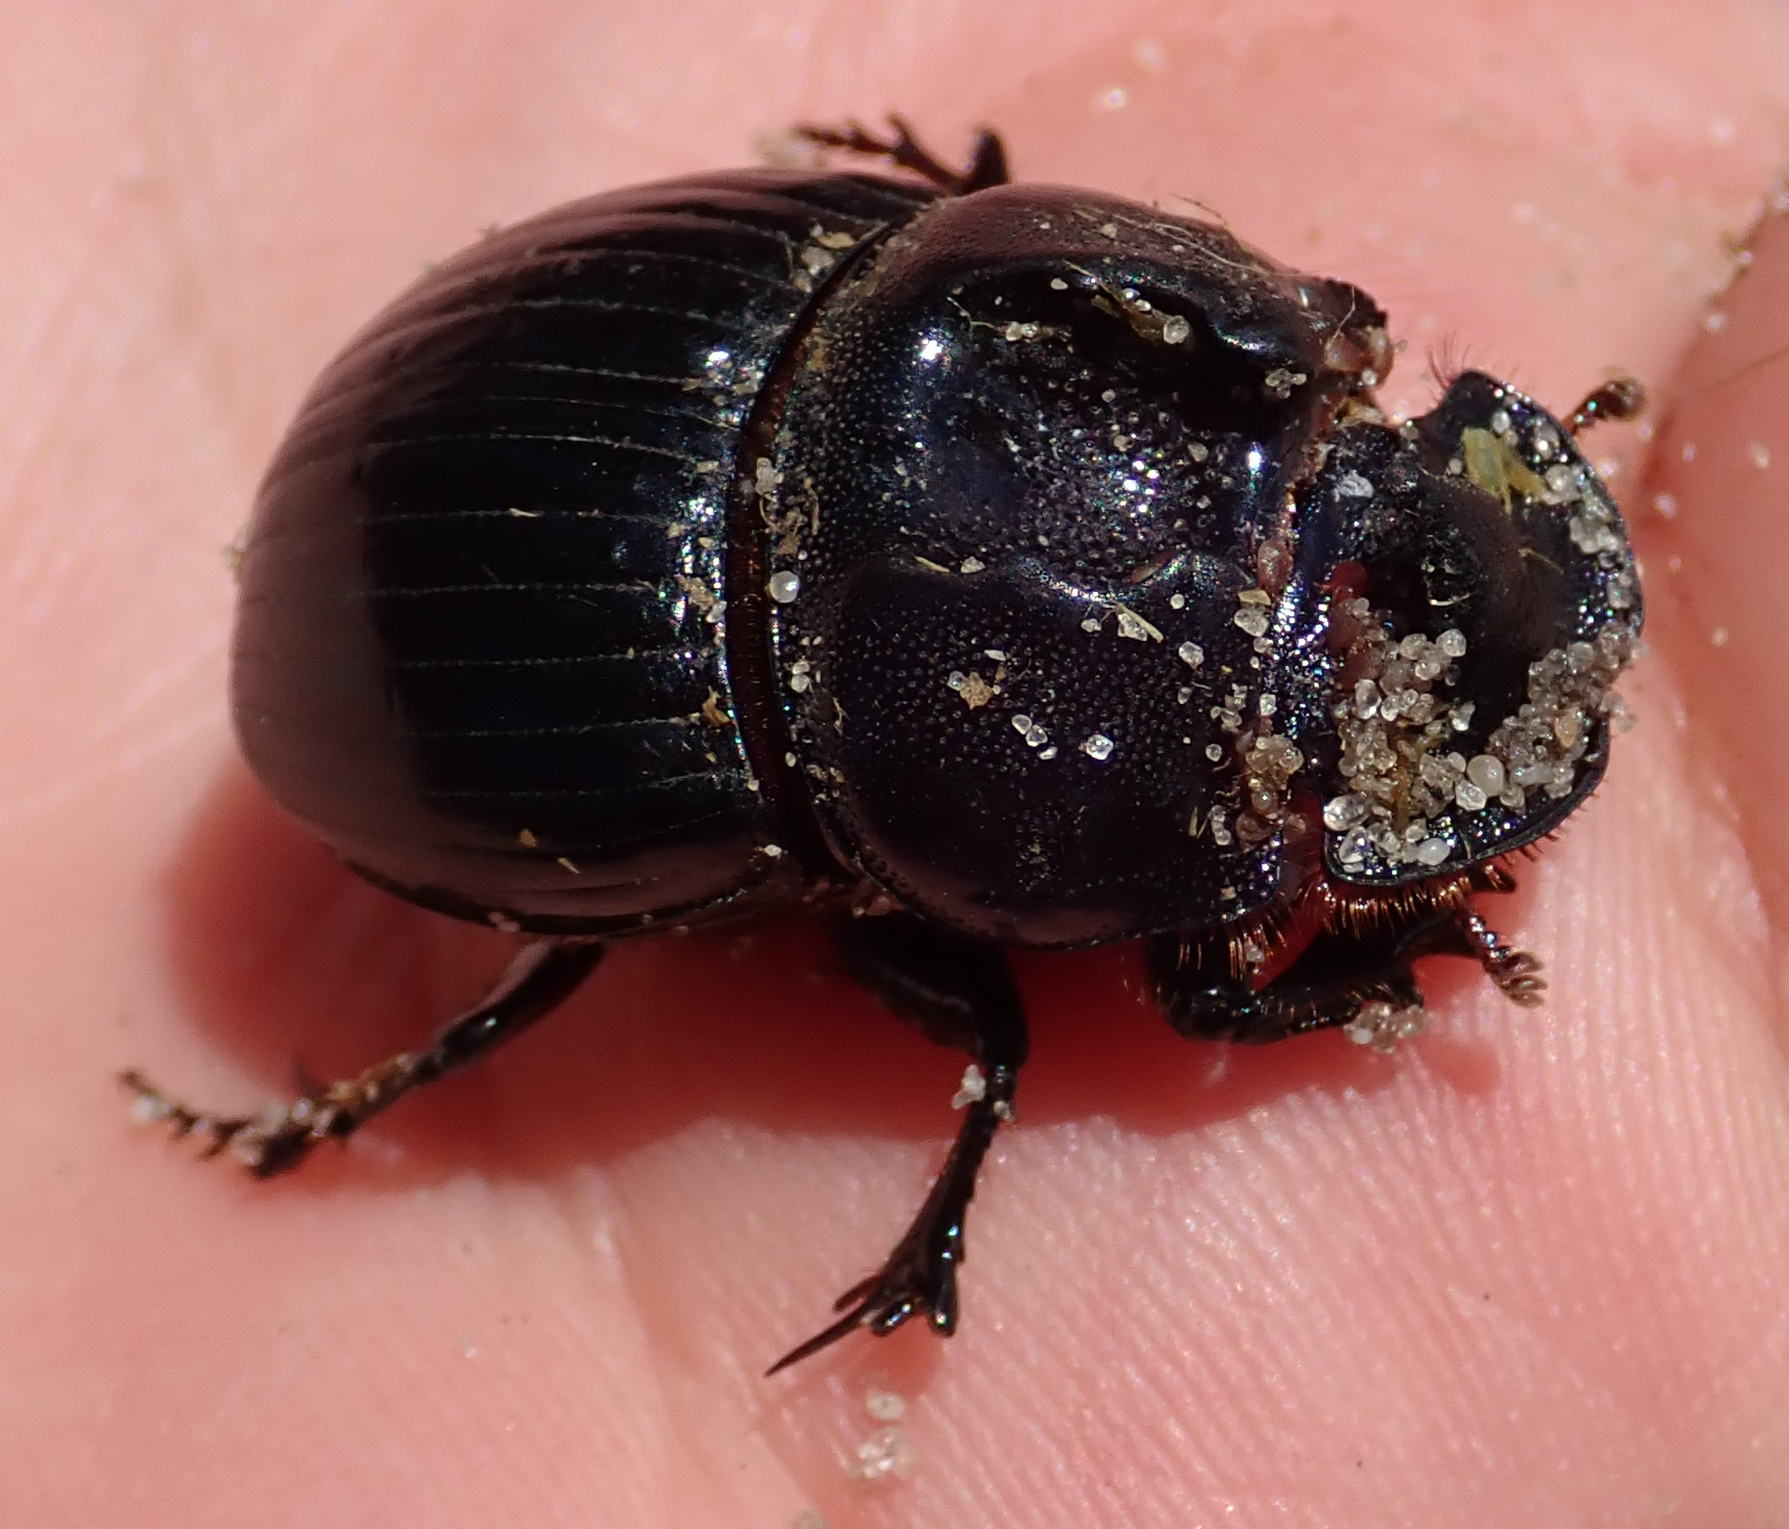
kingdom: Animalia
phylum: Arthropoda
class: Insecta
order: Coleoptera
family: Scarabaeidae
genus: Copris
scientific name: Copris bootes
